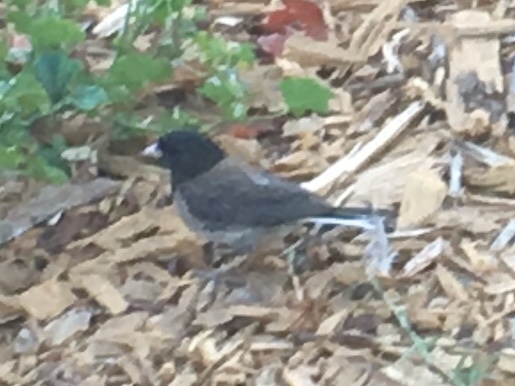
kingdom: Animalia
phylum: Chordata
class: Aves
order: Passeriformes
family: Passerellidae
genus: Junco
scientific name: Junco hyemalis
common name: Dark-eyed junco
